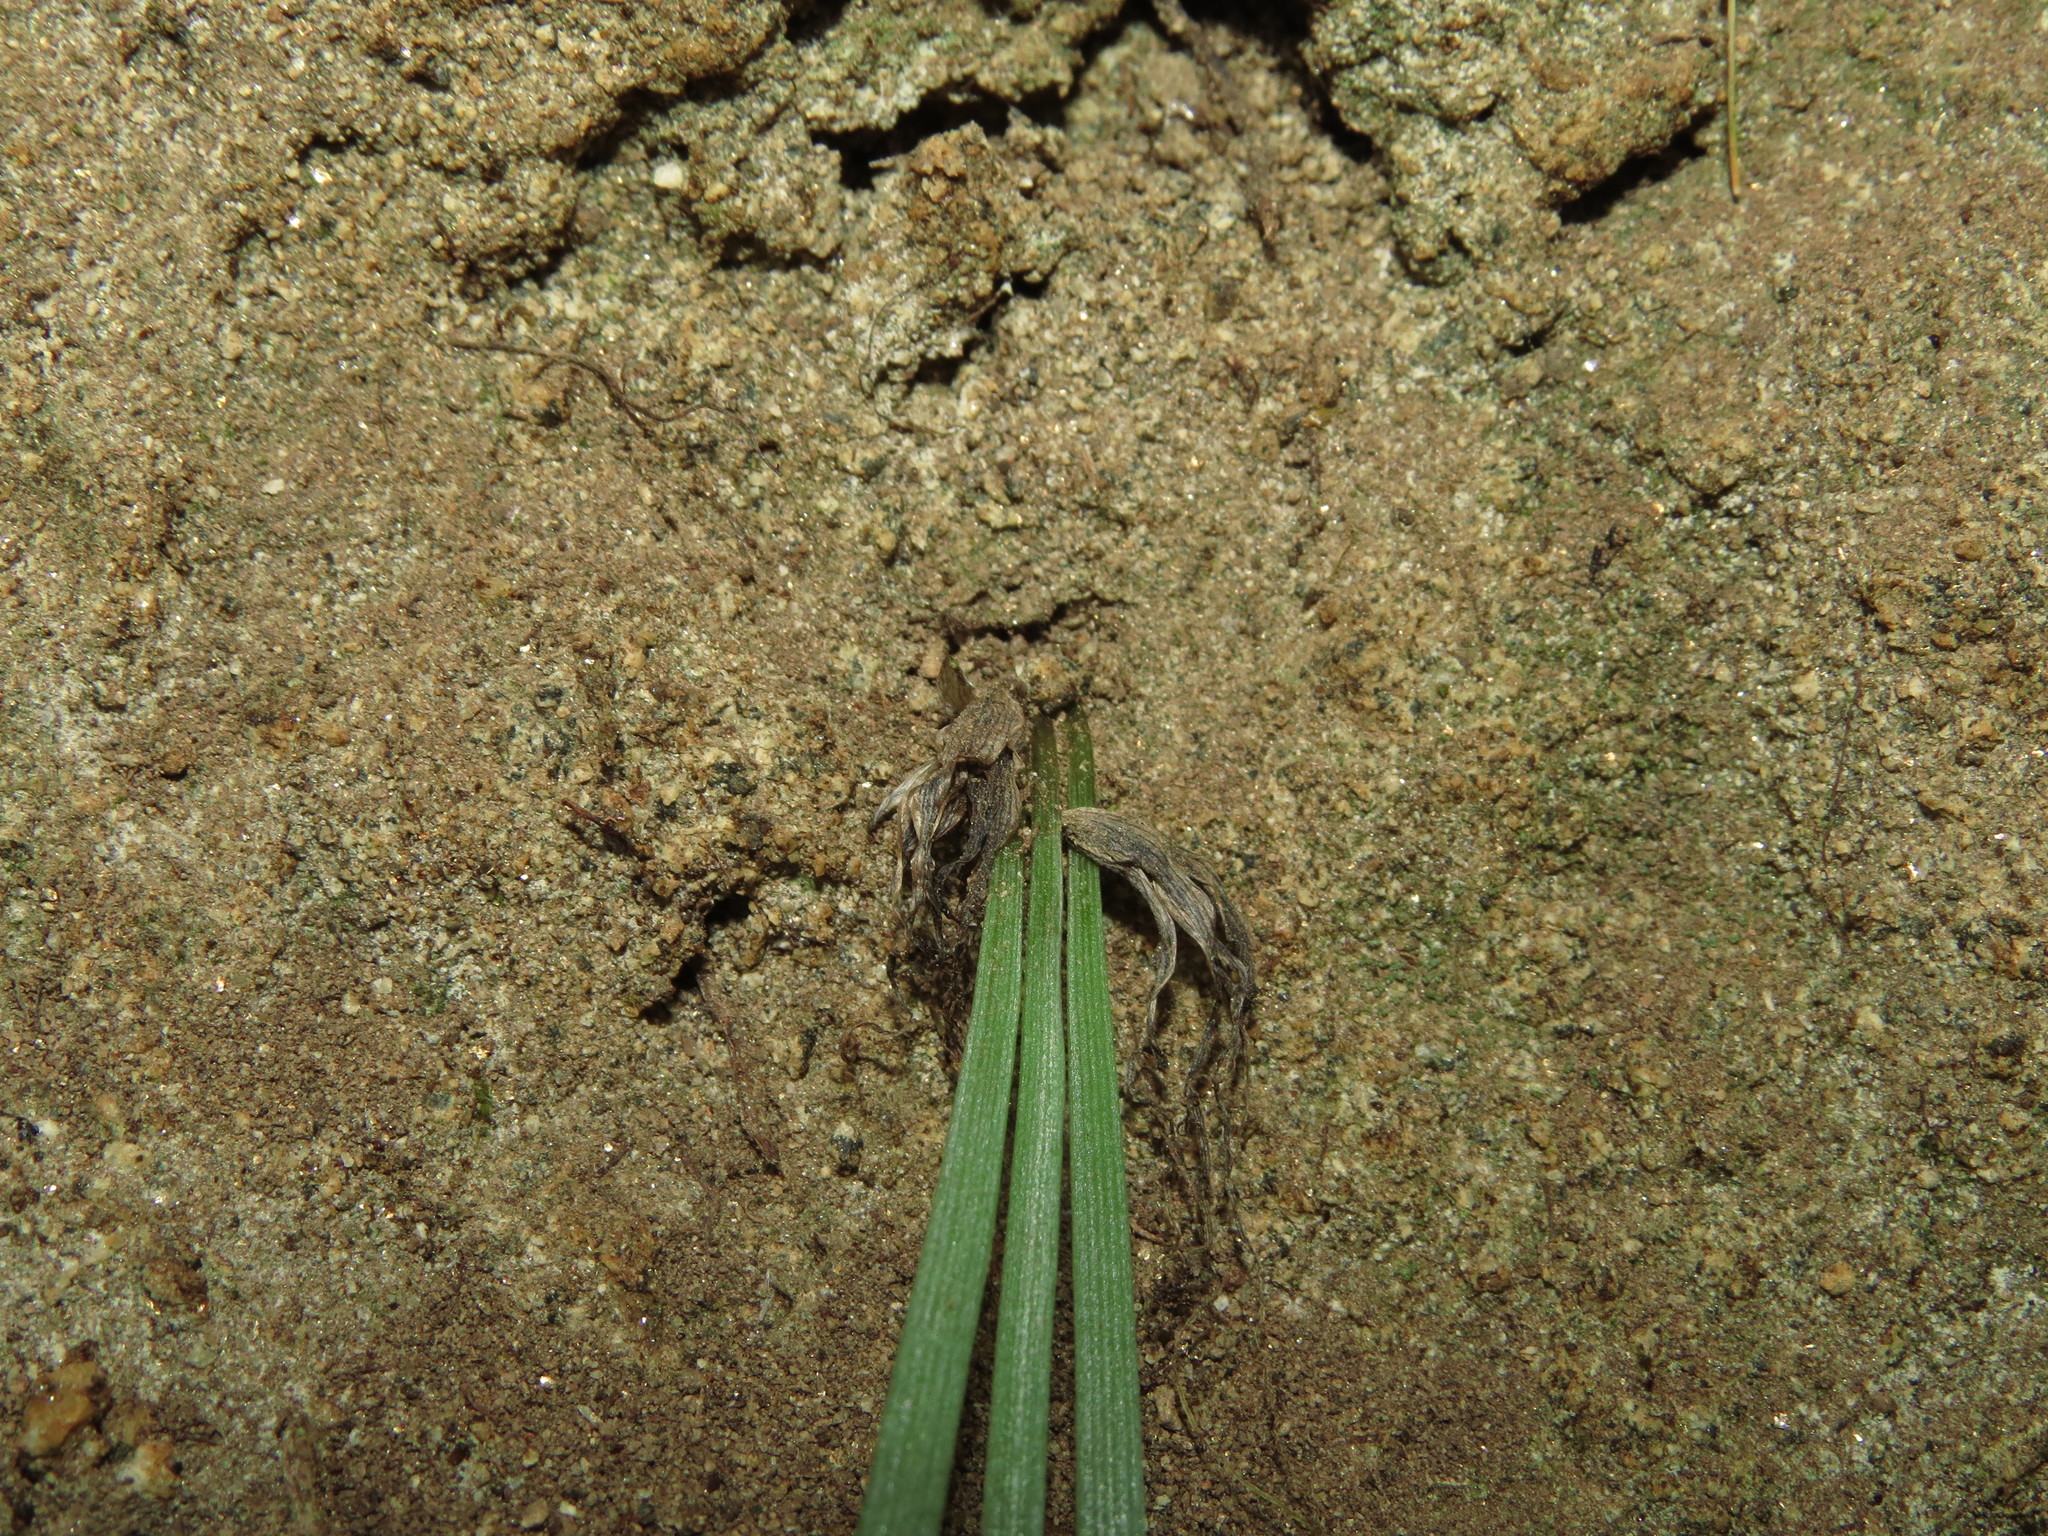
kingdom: Plantae
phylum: Tracheophyta
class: Liliopsida
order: Asparagales
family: Amaryllidaceae
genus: Miersia
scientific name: Miersia humilis
